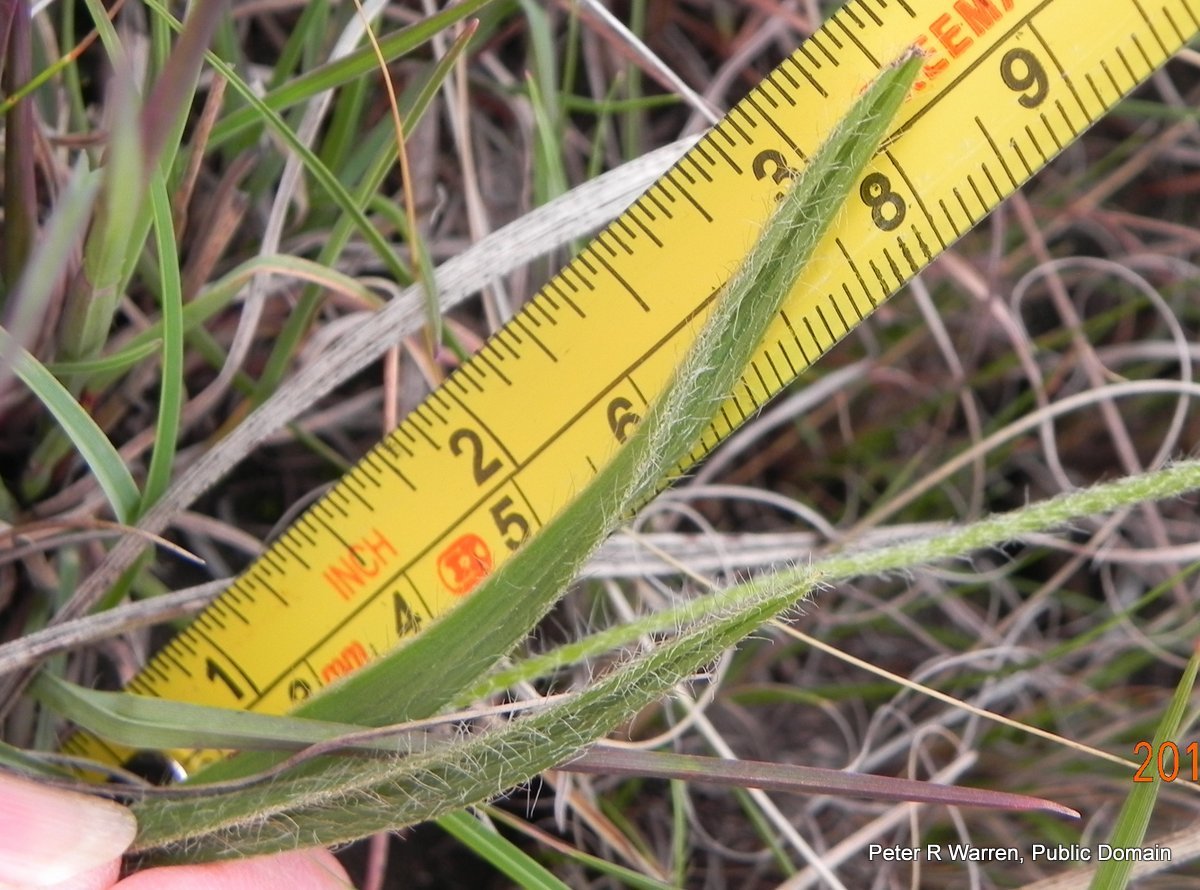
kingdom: Plantae
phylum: Tracheophyta
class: Liliopsida
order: Asparagales
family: Hypoxidaceae
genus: Hypoxis
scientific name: Hypoxis argentea
